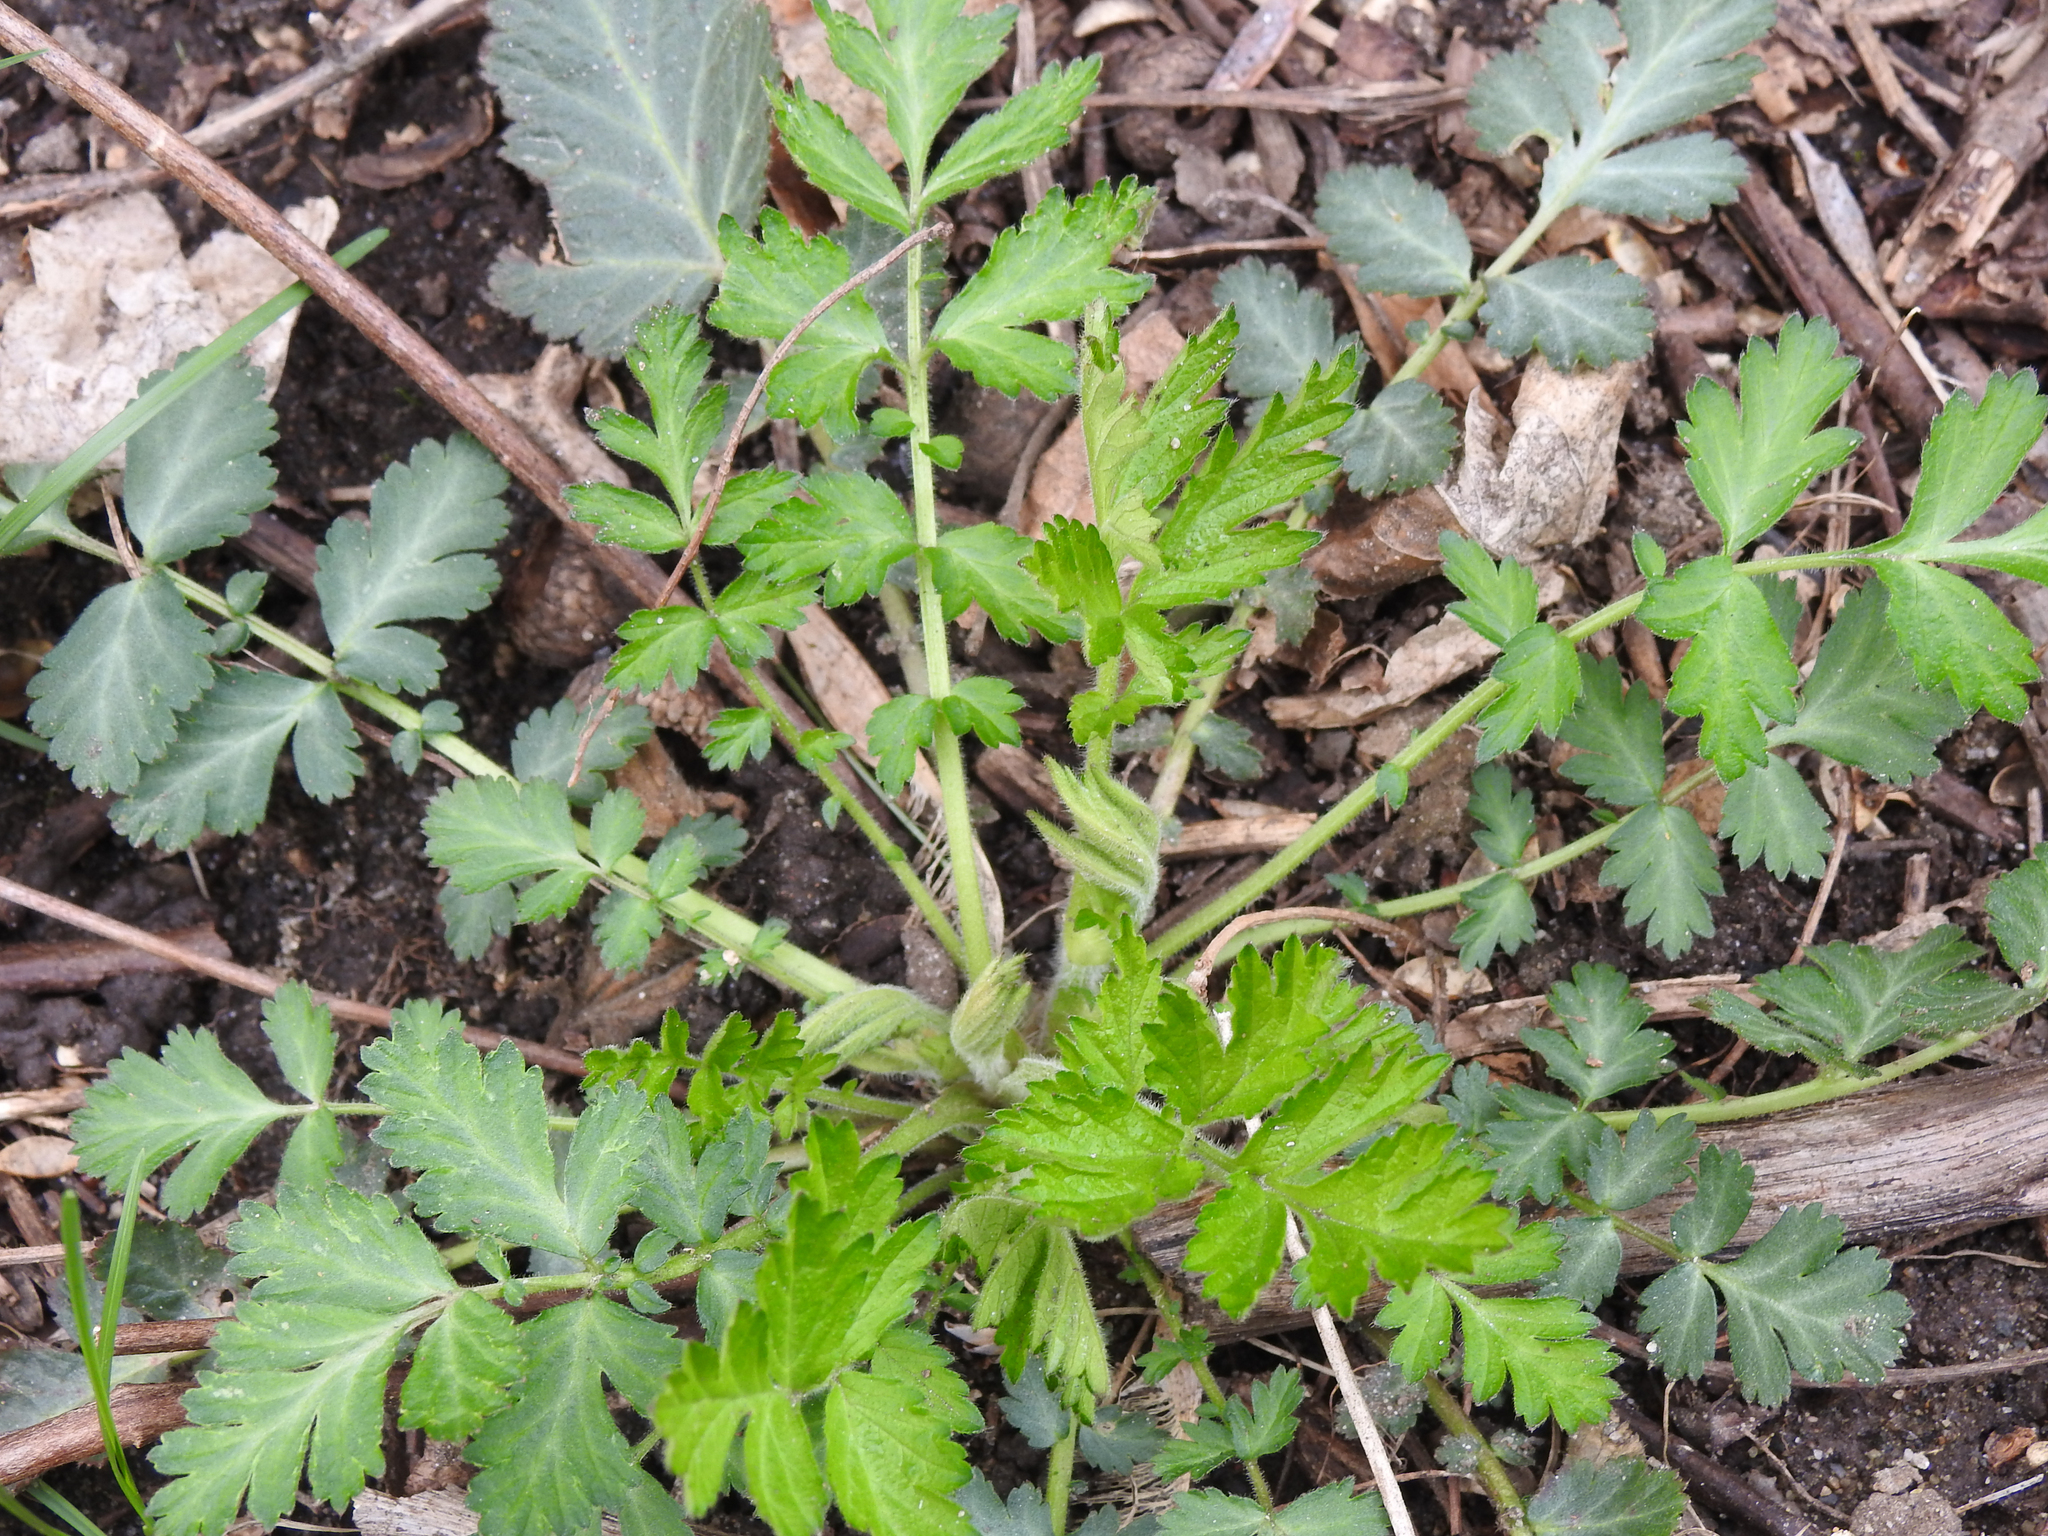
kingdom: Plantae
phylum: Tracheophyta
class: Magnoliopsida
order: Rosales
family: Rosaceae
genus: Geum
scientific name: Geum canadense
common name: White avens
